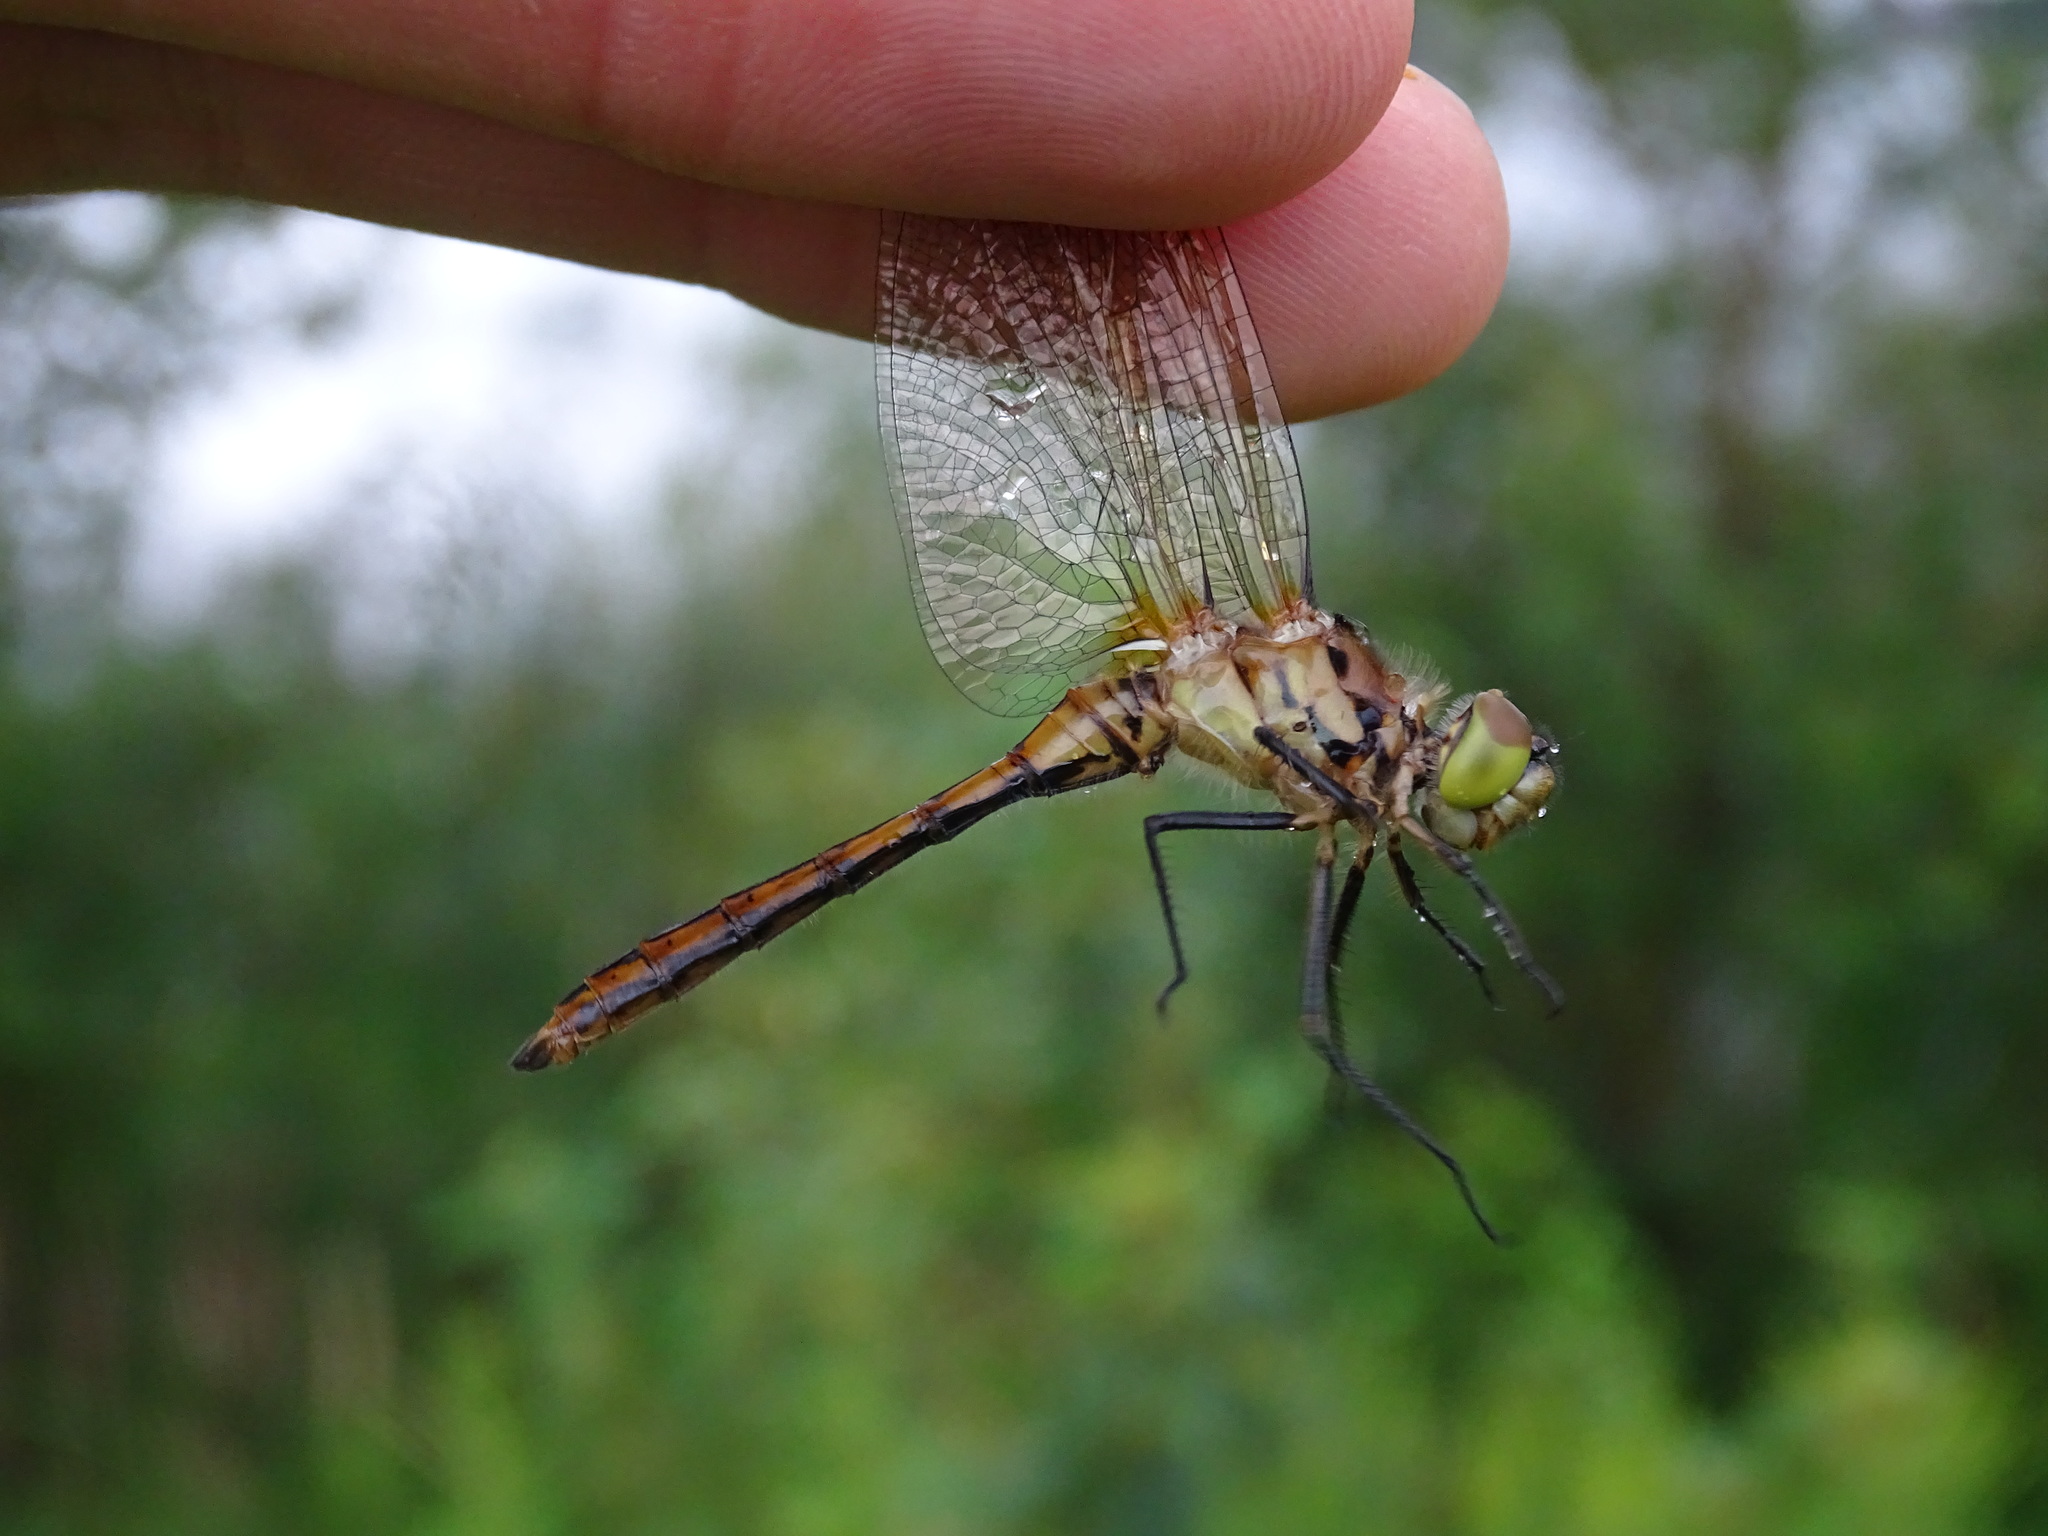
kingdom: Animalia
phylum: Arthropoda
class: Insecta
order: Odonata
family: Libellulidae
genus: Sympetrum
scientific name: Sympetrum costiferum
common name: Saffron-winged meadowhawk
